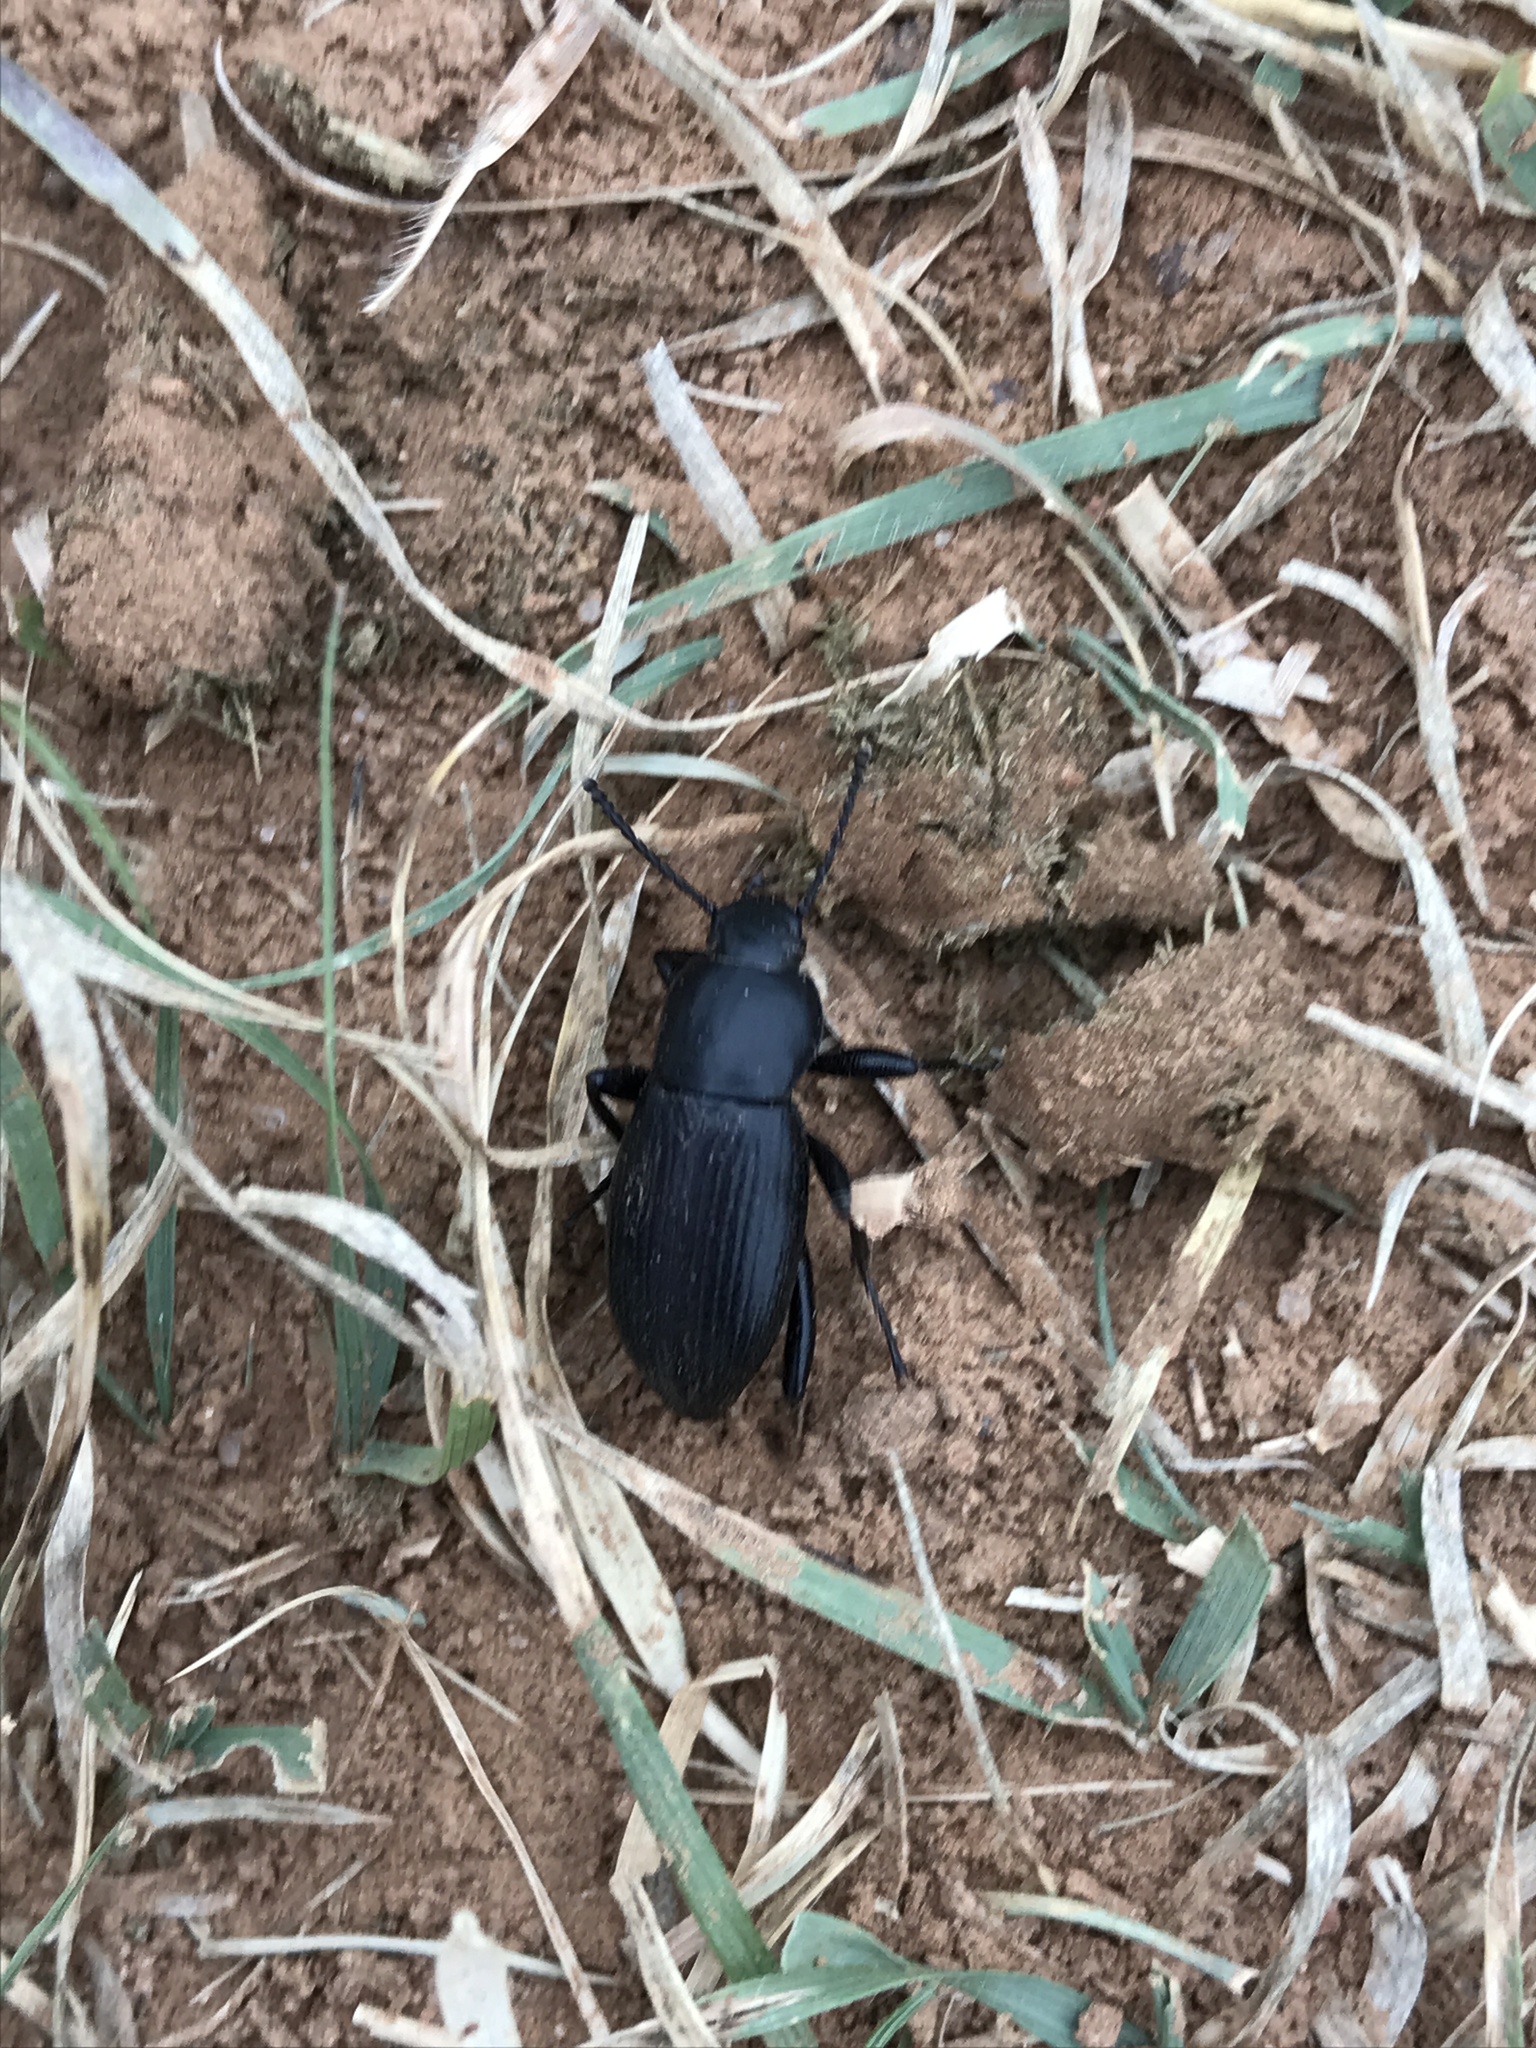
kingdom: Animalia
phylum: Arthropoda
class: Insecta
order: Coleoptera
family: Tenebrionidae
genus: Eleodes
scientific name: Eleodes carbonaria
